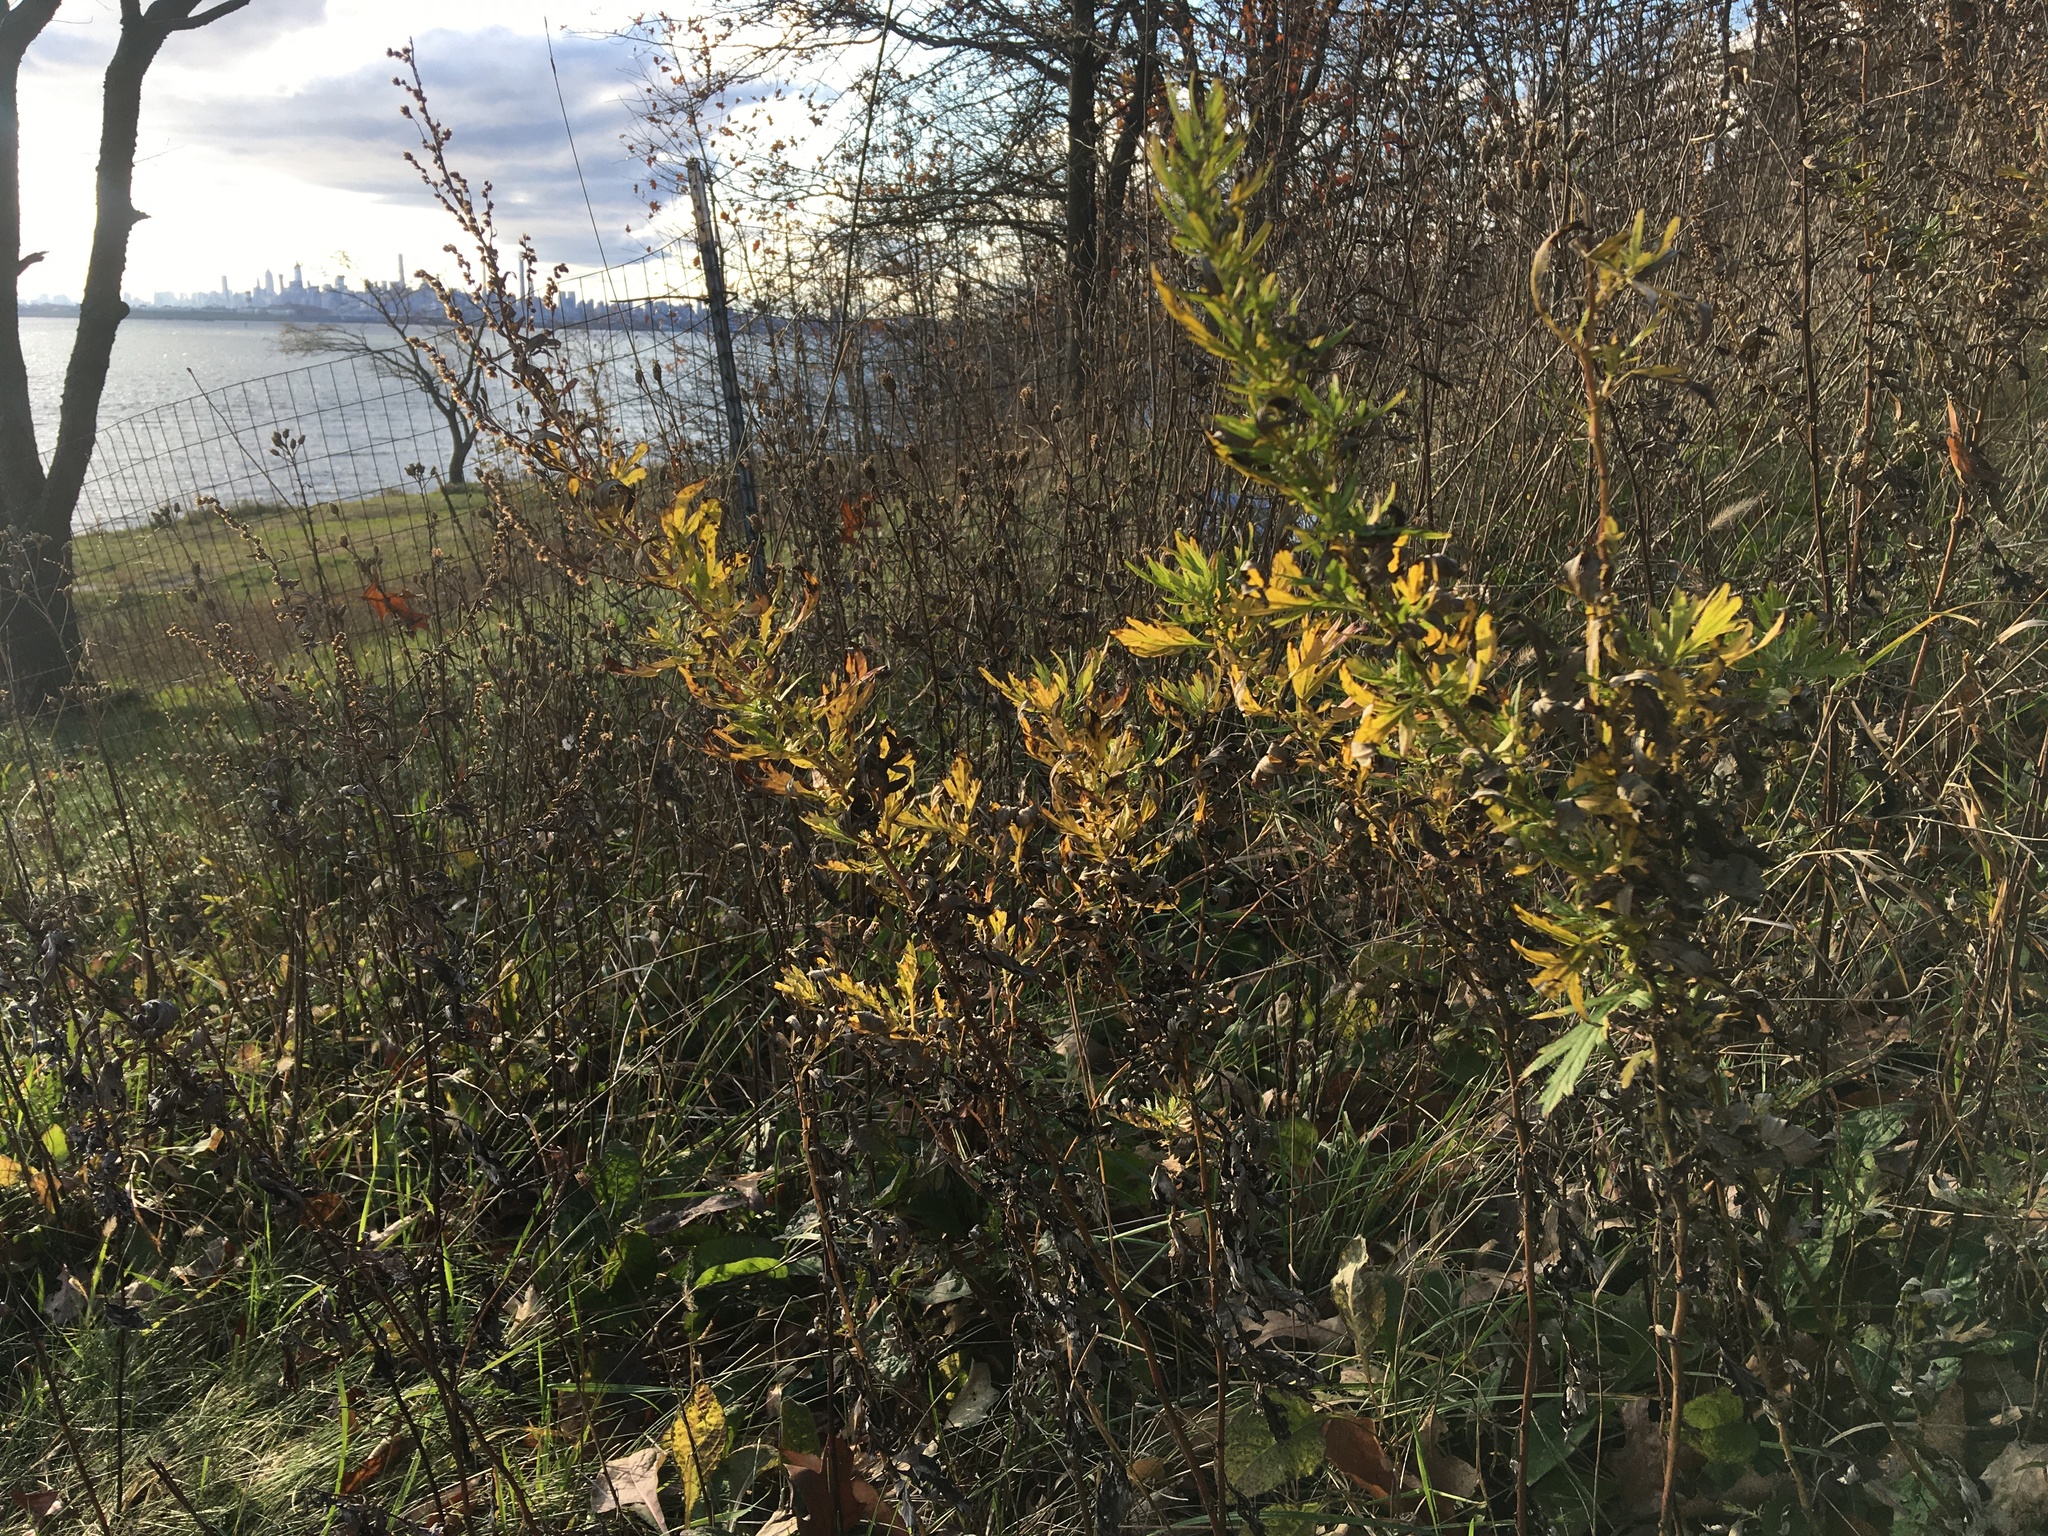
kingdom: Plantae
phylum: Tracheophyta
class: Magnoliopsida
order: Asterales
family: Asteraceae
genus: Artemisia
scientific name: Artemisia vulgaris
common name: Mugwort
